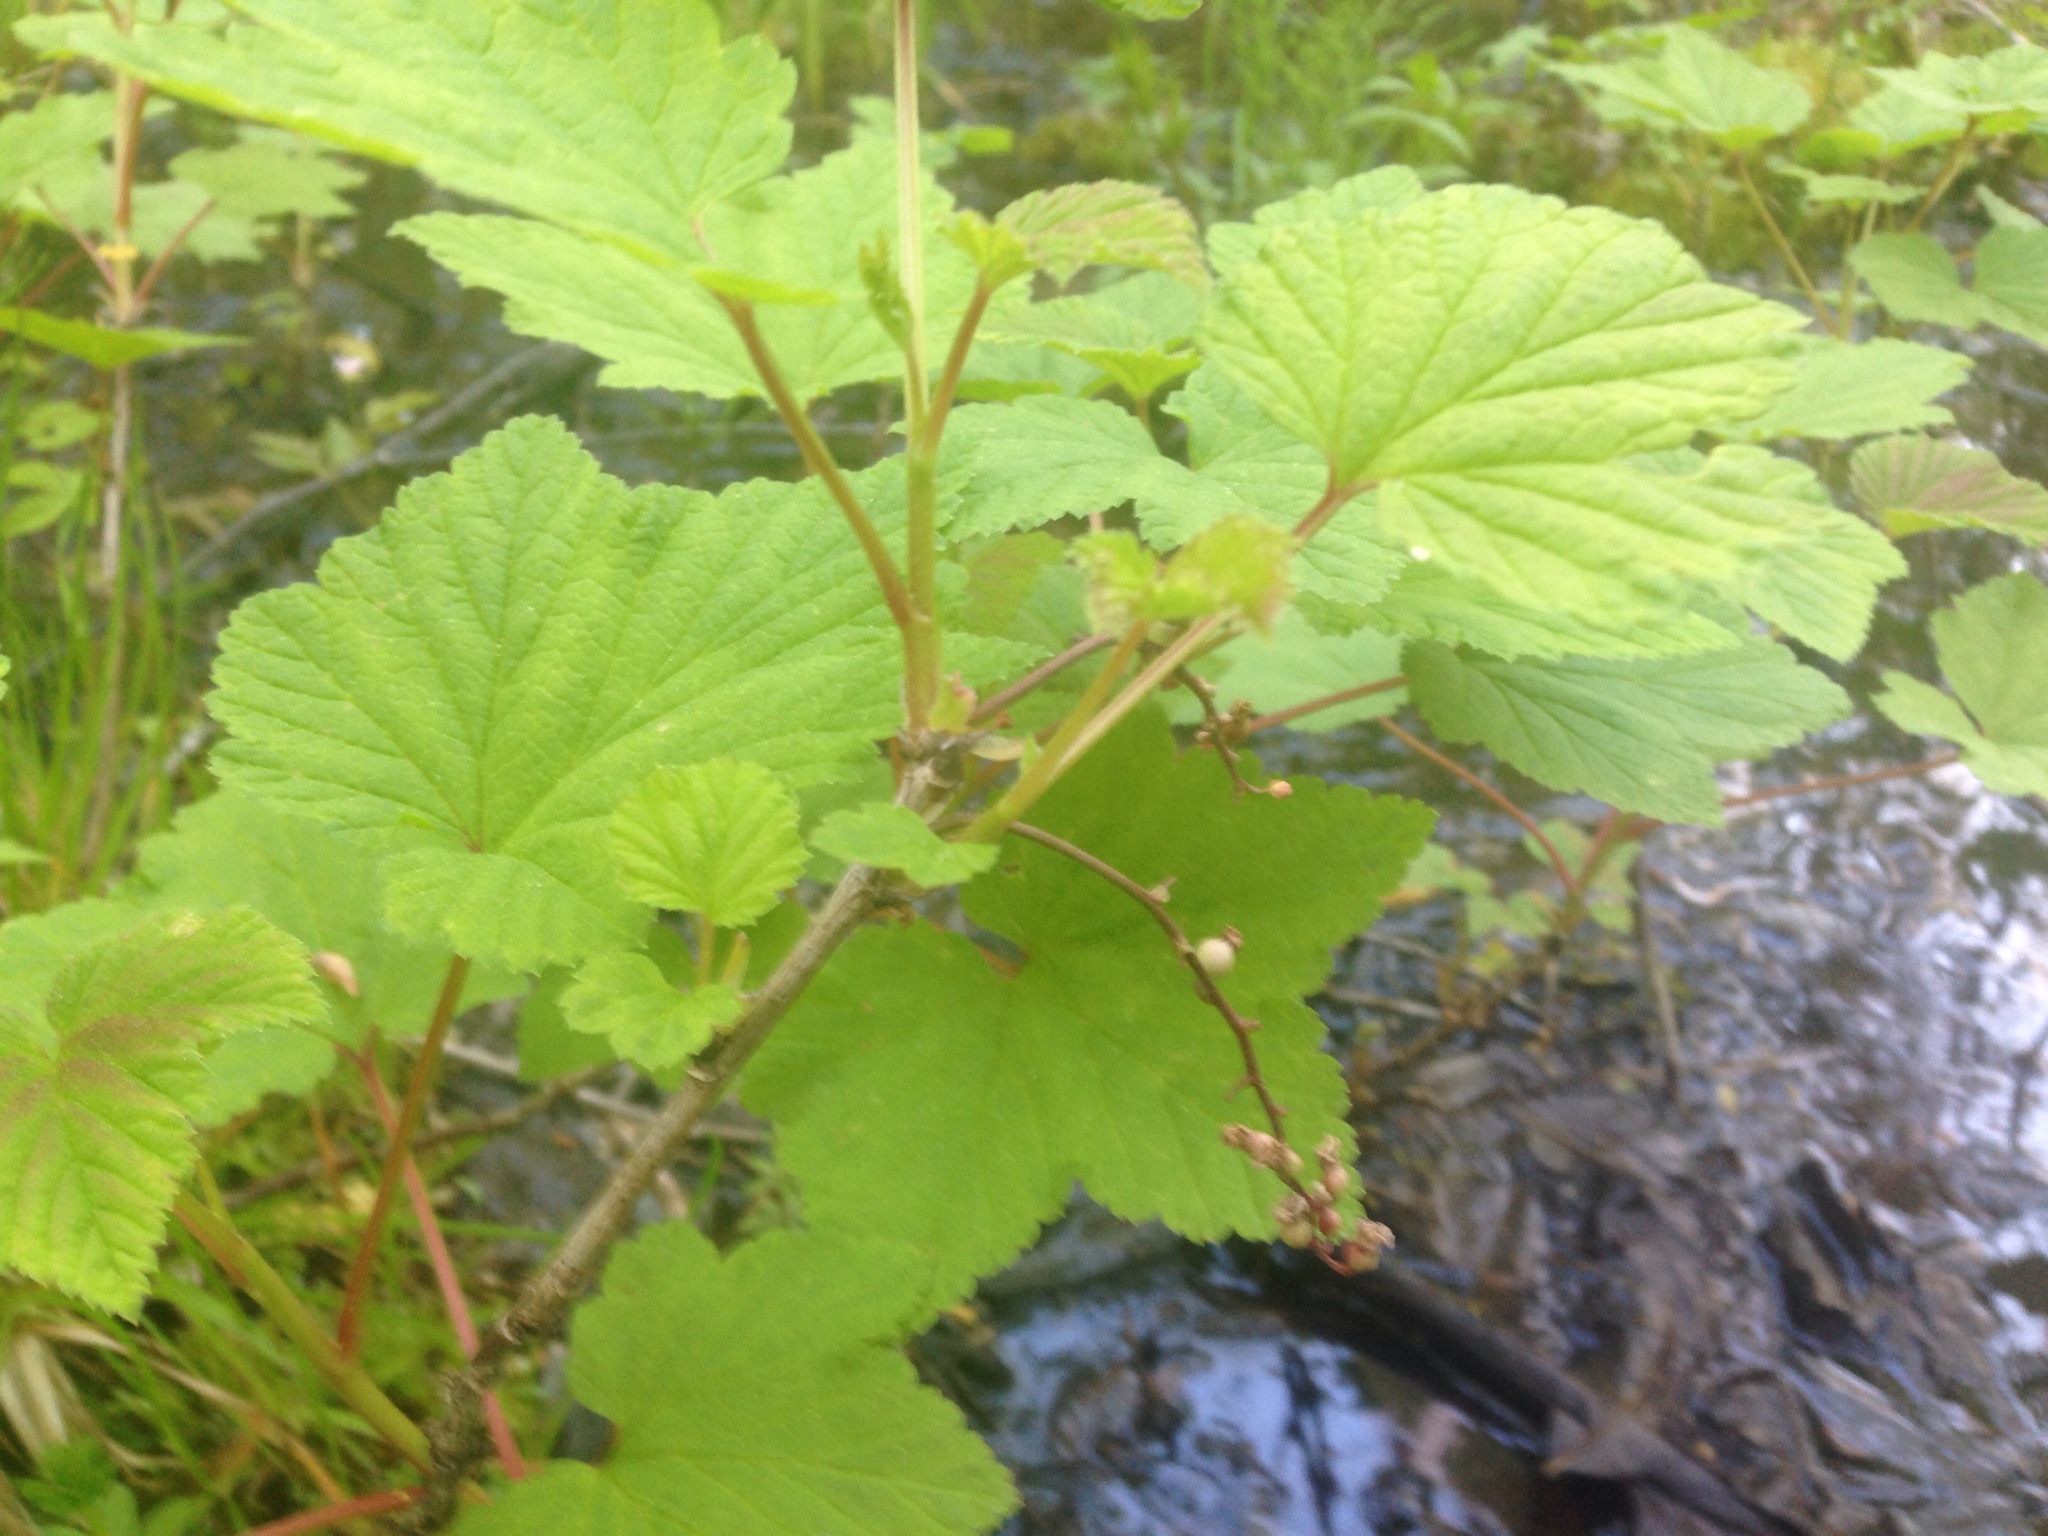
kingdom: Plantae
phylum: Tracheophyta
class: Magnoliopsida
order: Saxifragales
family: Grossulariaceae
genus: Ribes
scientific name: Ribes triste
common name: Swamp red currant
